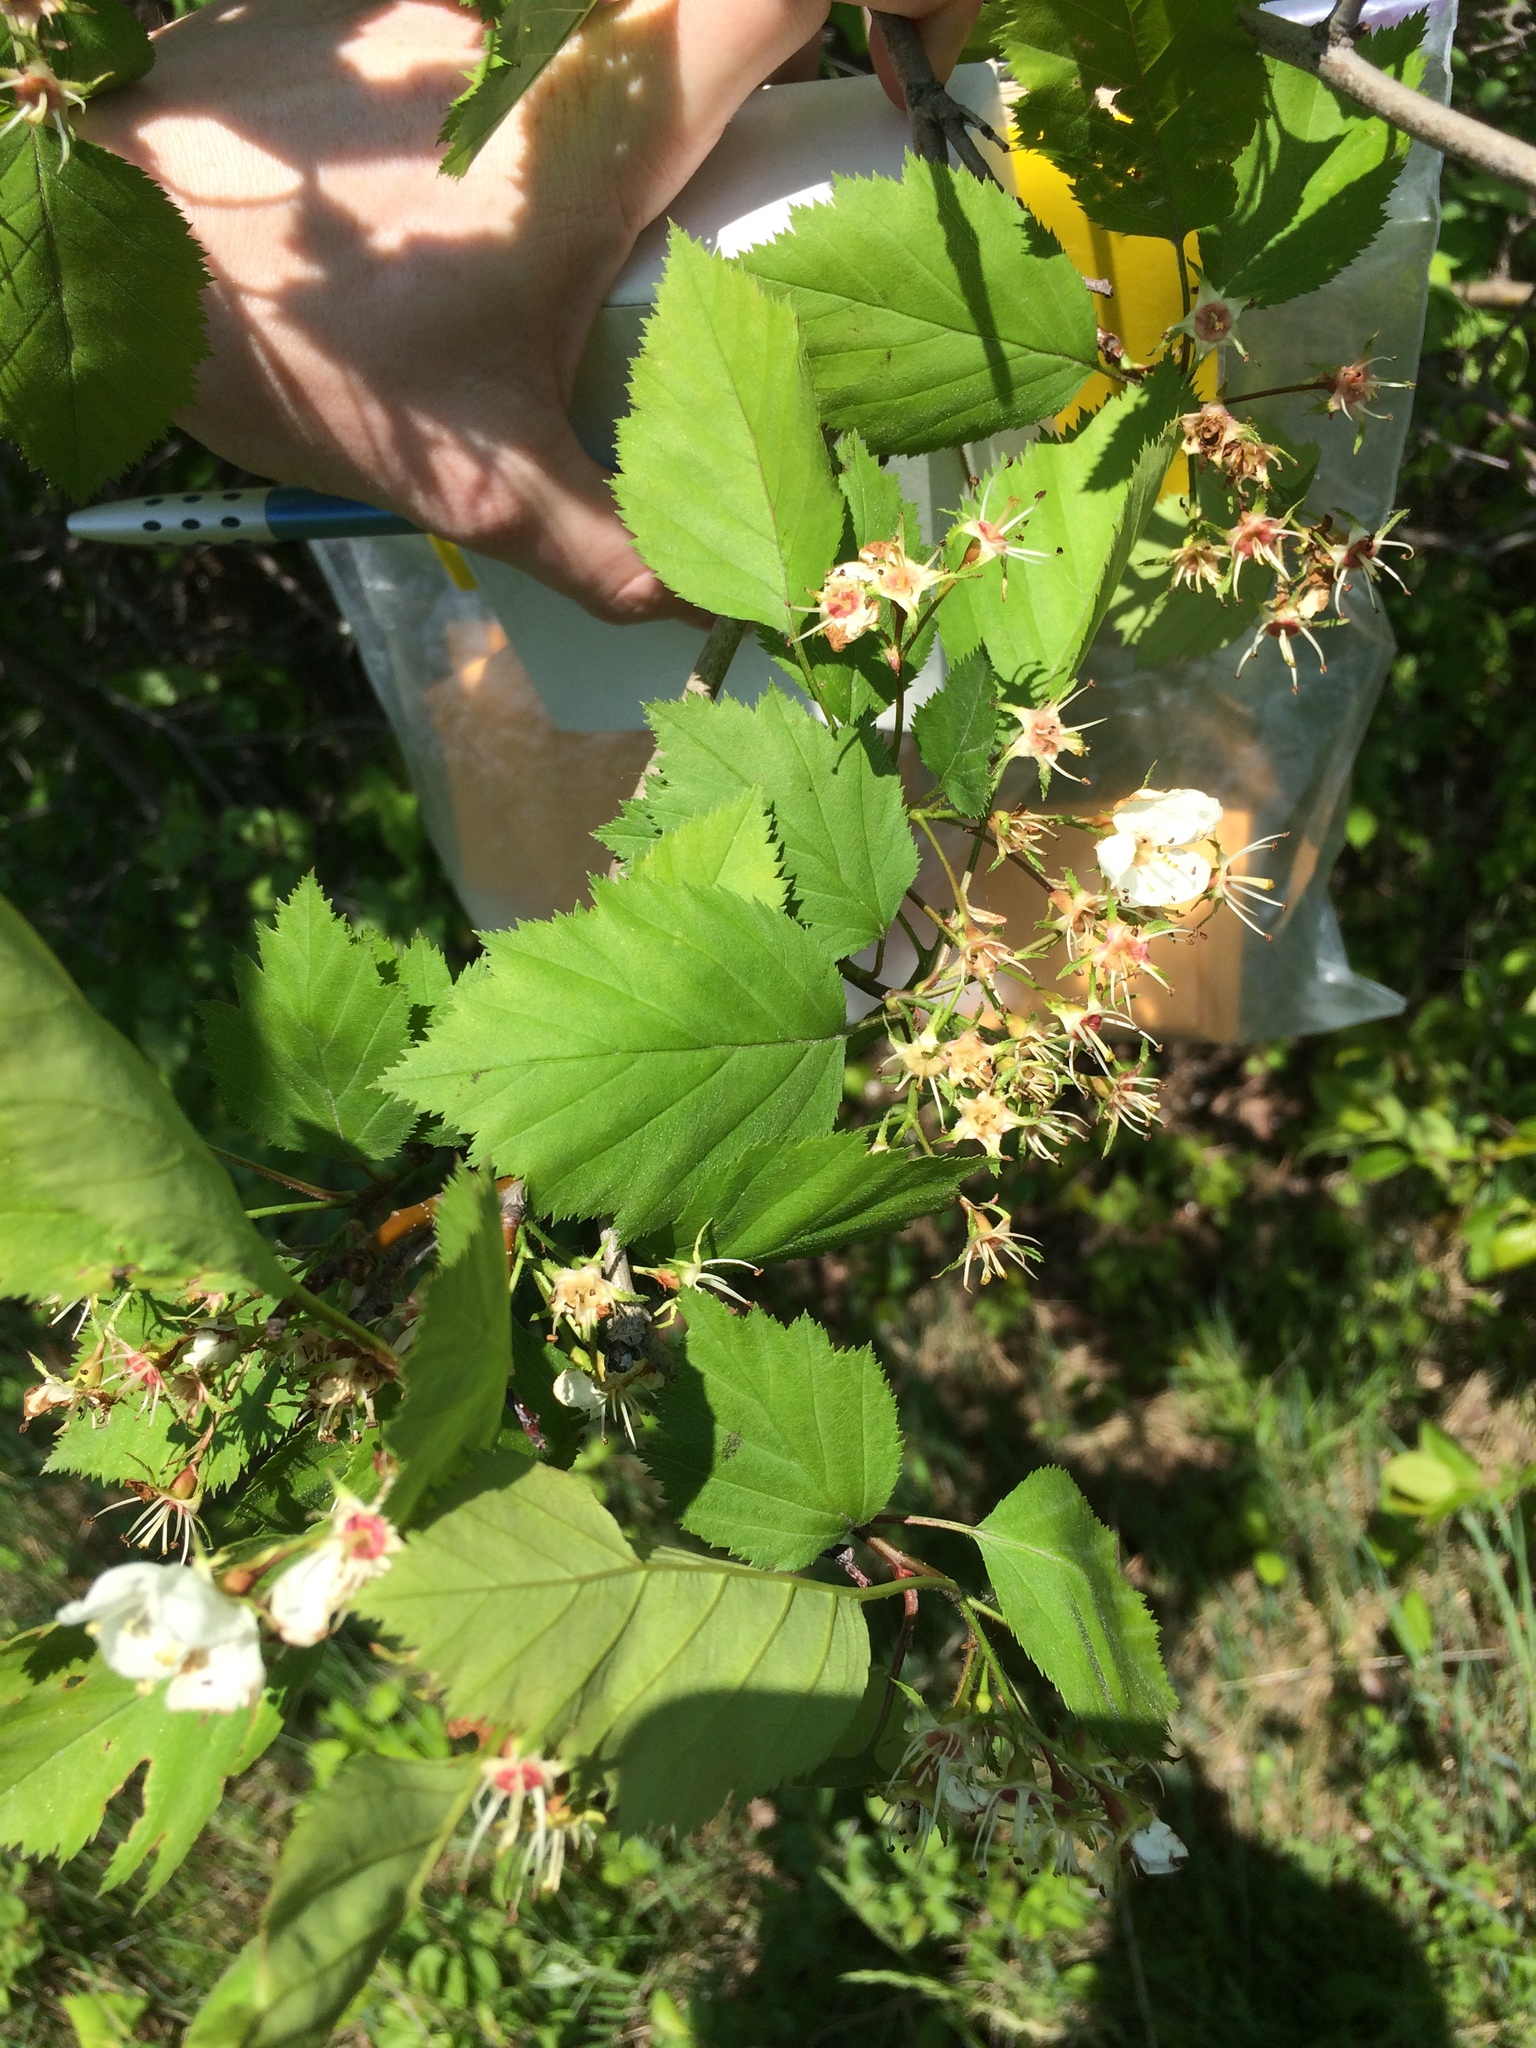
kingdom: Plantae
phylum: Tracheophyta
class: Magnoliopsida
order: Rosales
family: Rosaceae
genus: Crataegus
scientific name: Crataegus holmesiana
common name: Holmes' hawthorn
